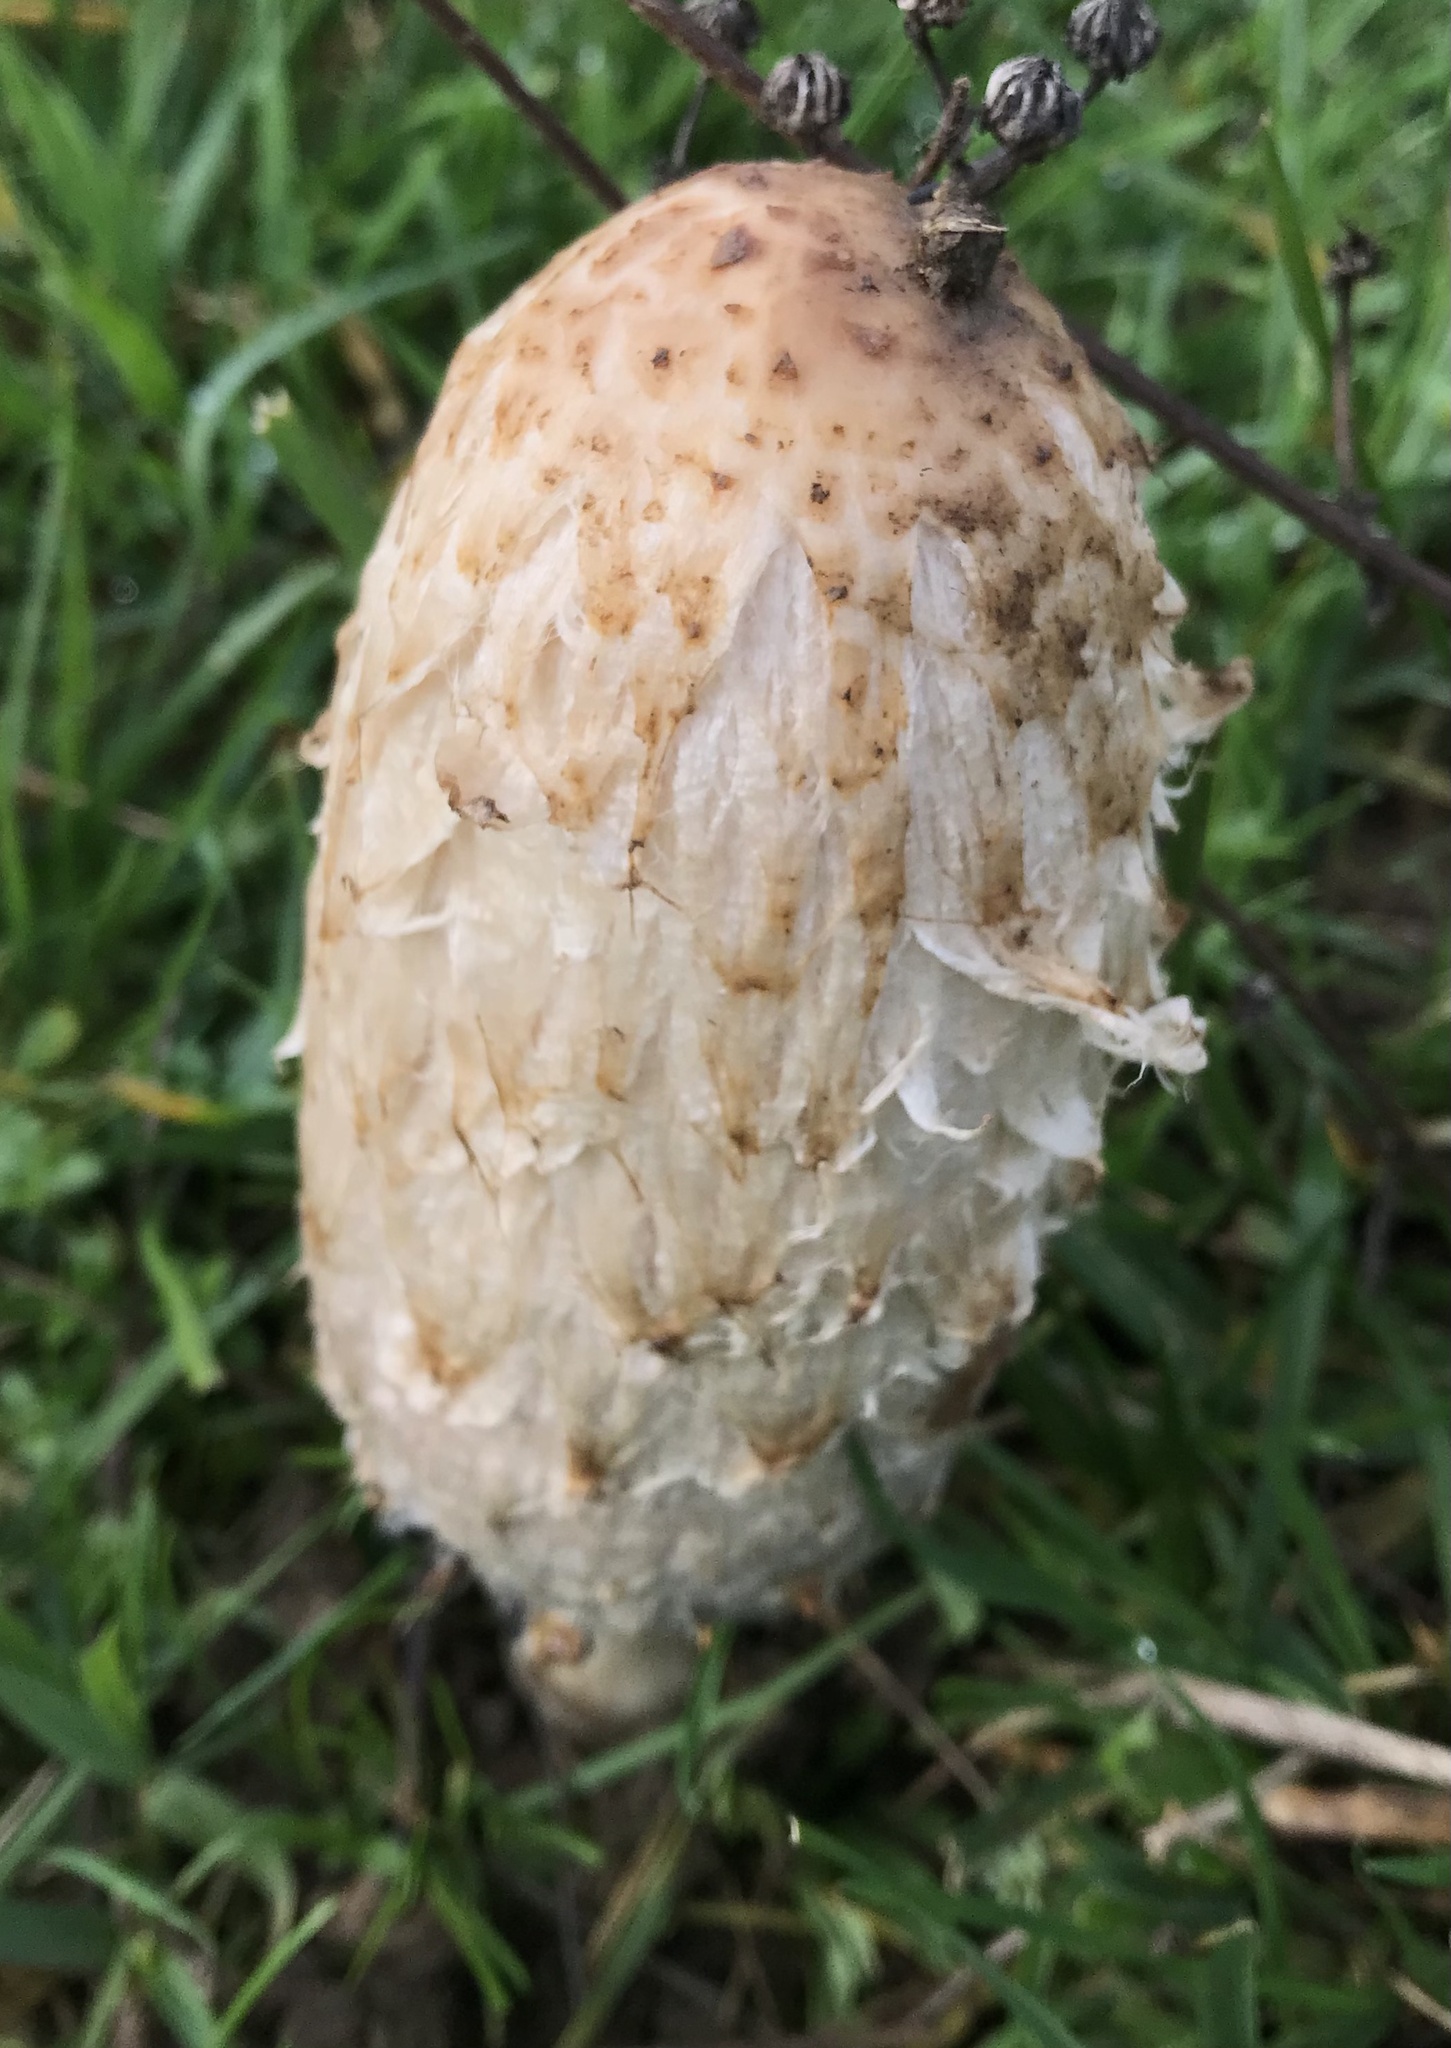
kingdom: Fungi
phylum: Basidiomycota
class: Agaricomycetes
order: Agaricales
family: Agaricaceae
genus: Coprinus
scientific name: Coprinus comatus
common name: Lawyer's wig
